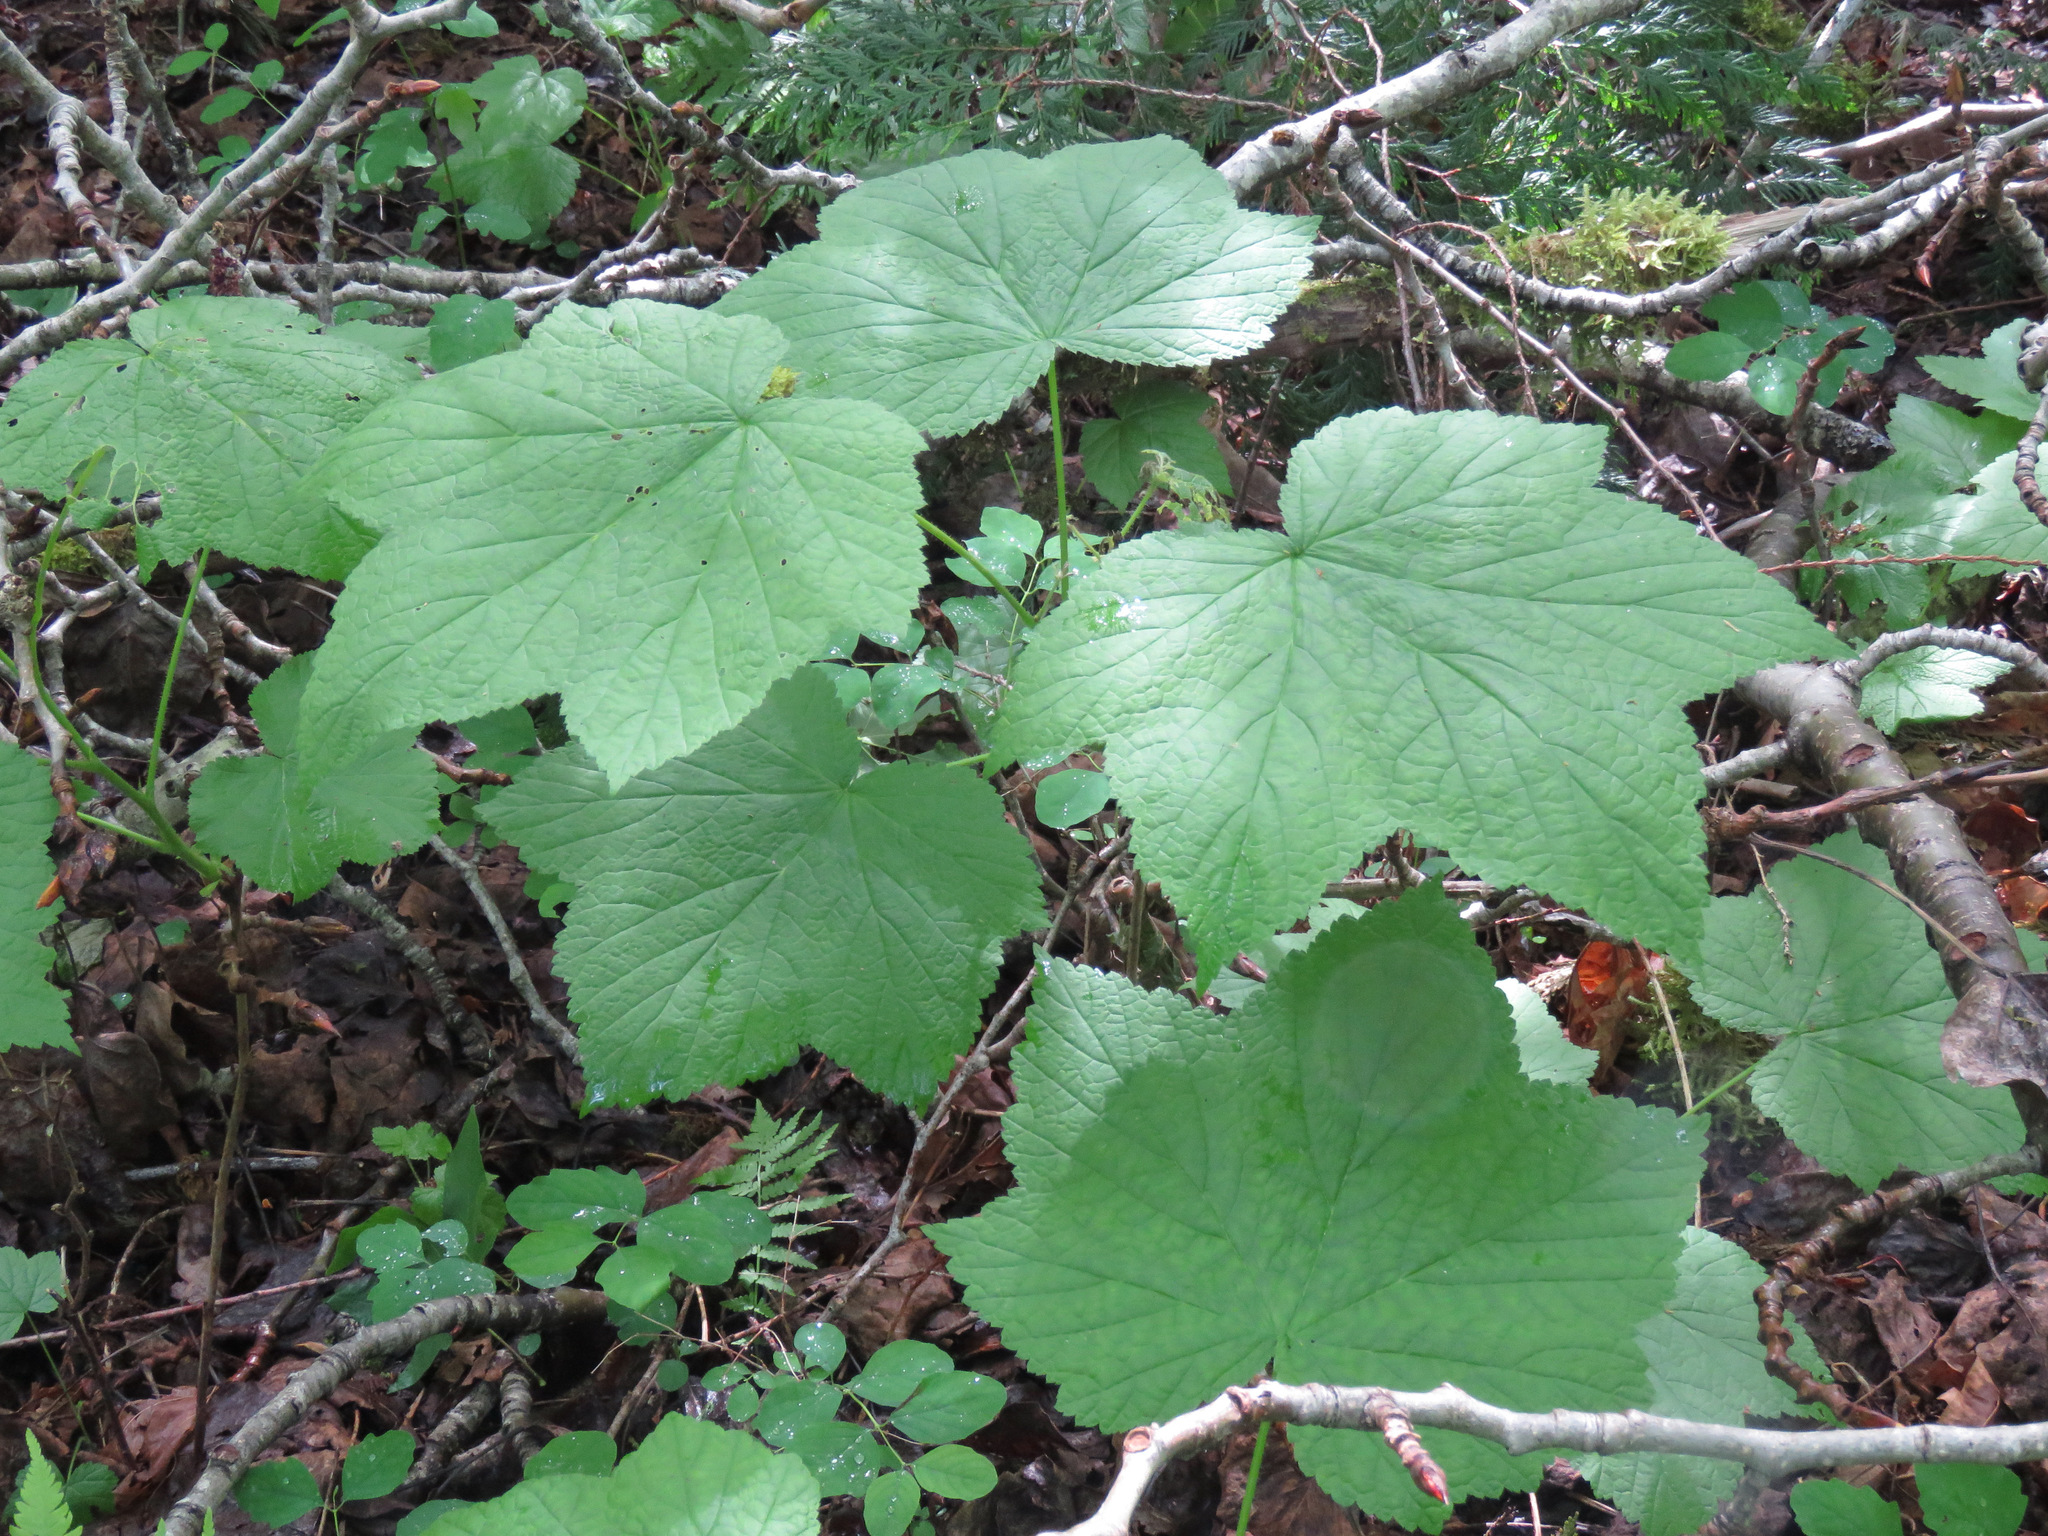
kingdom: Plantae
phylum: Tracheophyta
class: Magnoliopsida
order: Rosales
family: Rosaceae
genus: Rubus
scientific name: Rubus parviflorus
